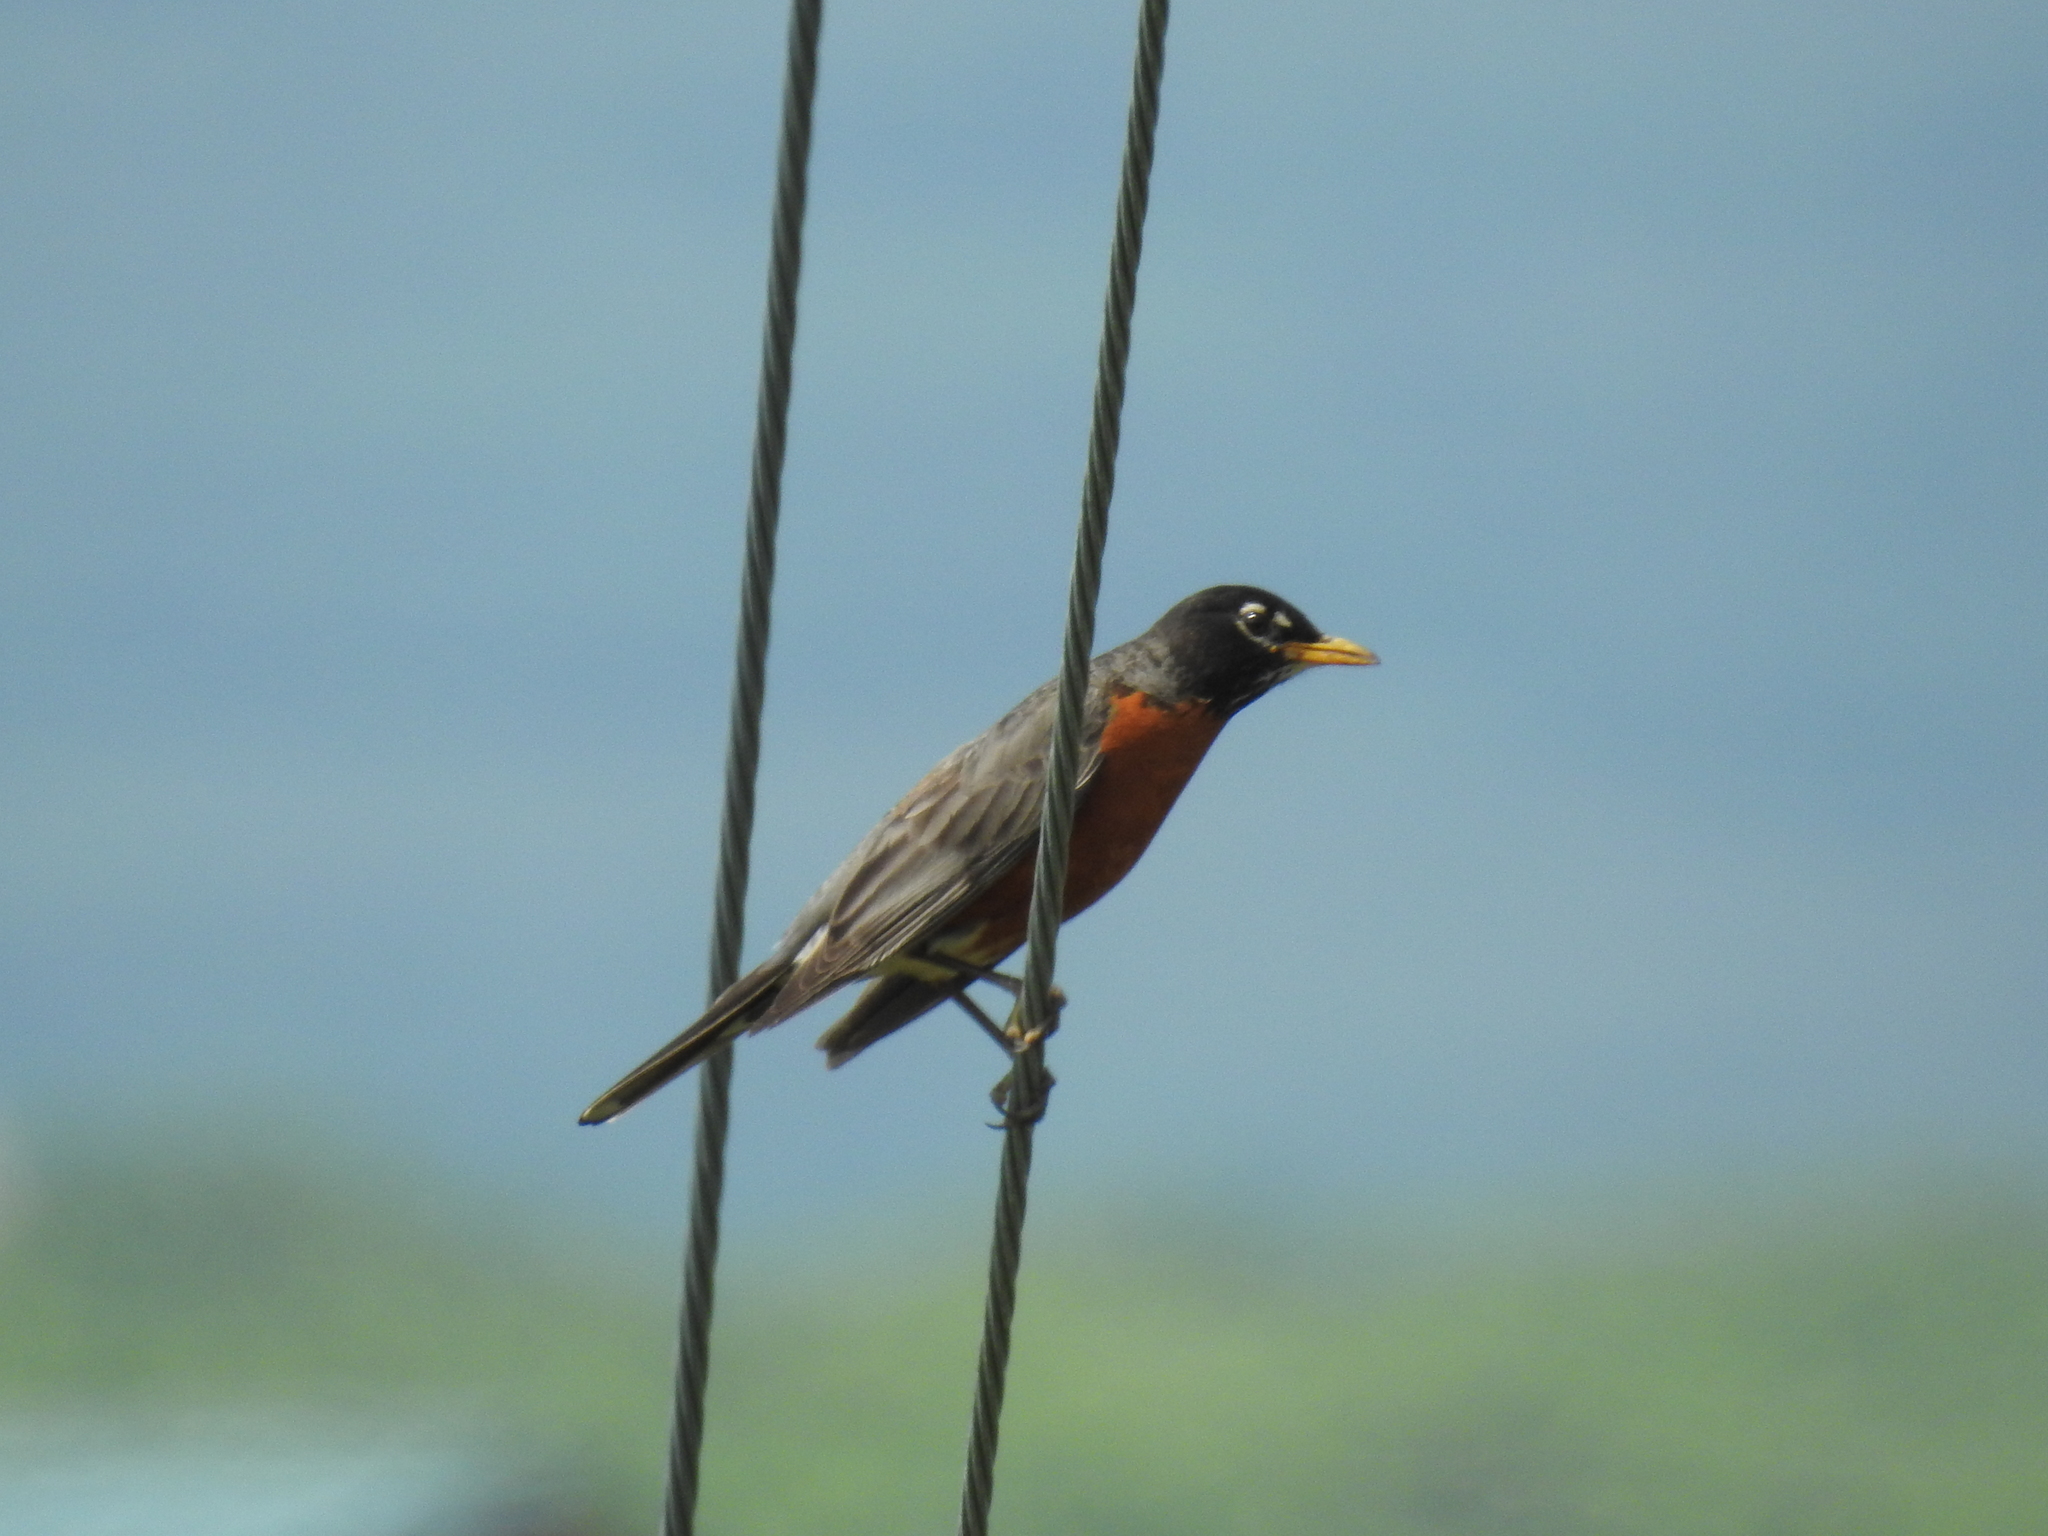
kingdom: Animalia
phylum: Chordata
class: Aves
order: Passeriformes
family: Turdidae
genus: Turdus
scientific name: Turdus migratorius
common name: American robin
